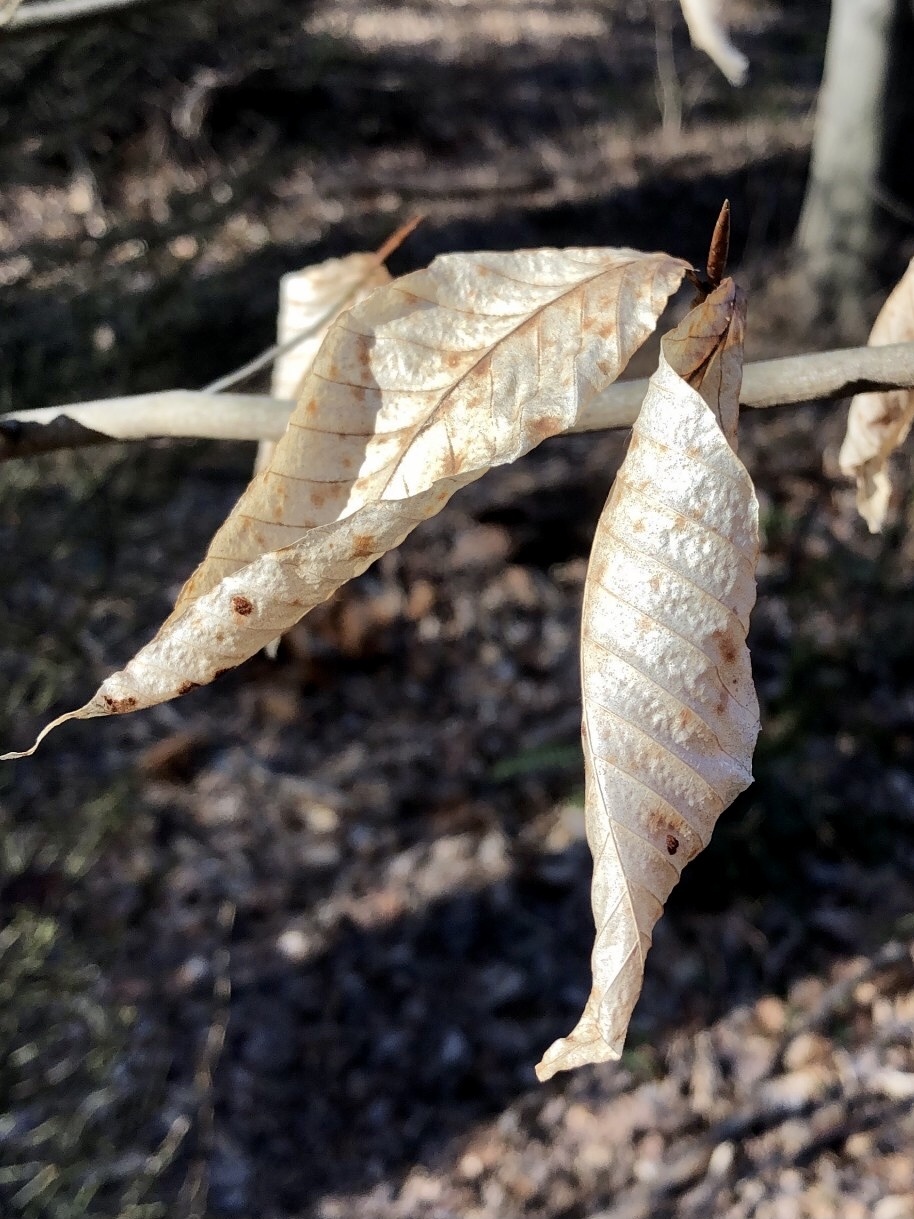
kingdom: Plantae
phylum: Tracheophyta
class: Magnoliopsida
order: Fagales
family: Fagaceae
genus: Fagus
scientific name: Fagus grandifolia
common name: American beech
